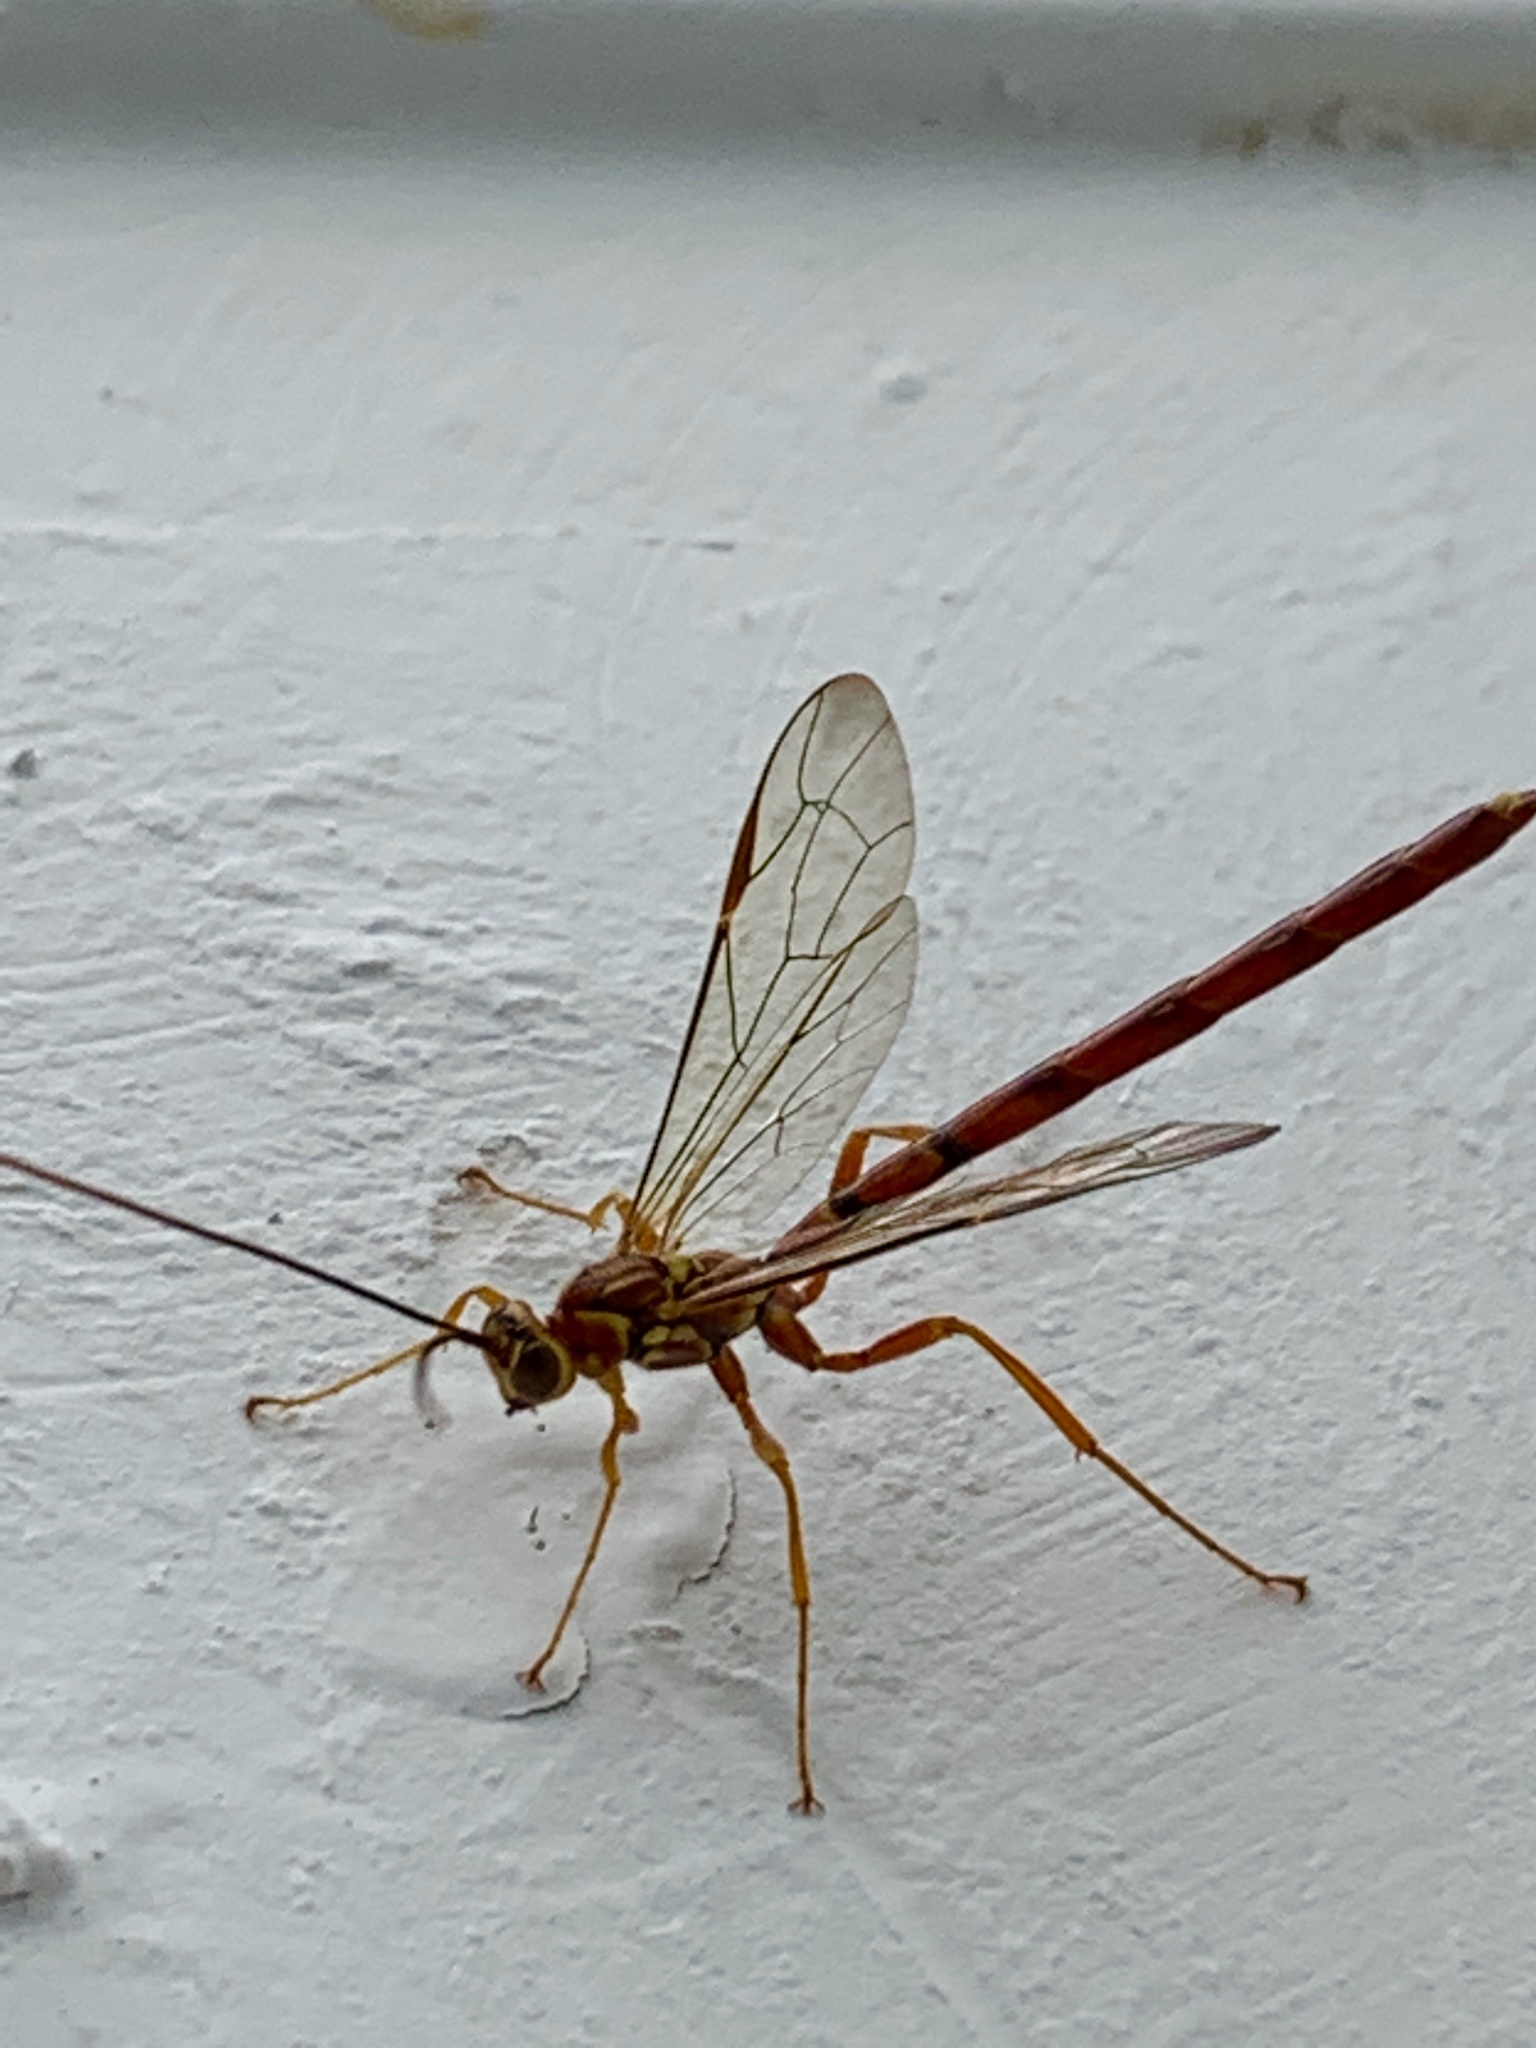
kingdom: Animalia
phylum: Arthropoda
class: Insecta
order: Hymenoptera
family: Ichneumonidae
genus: Megarhyssa
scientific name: Megarhyssa greenei
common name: Greene's giant ichneumonid wasp
